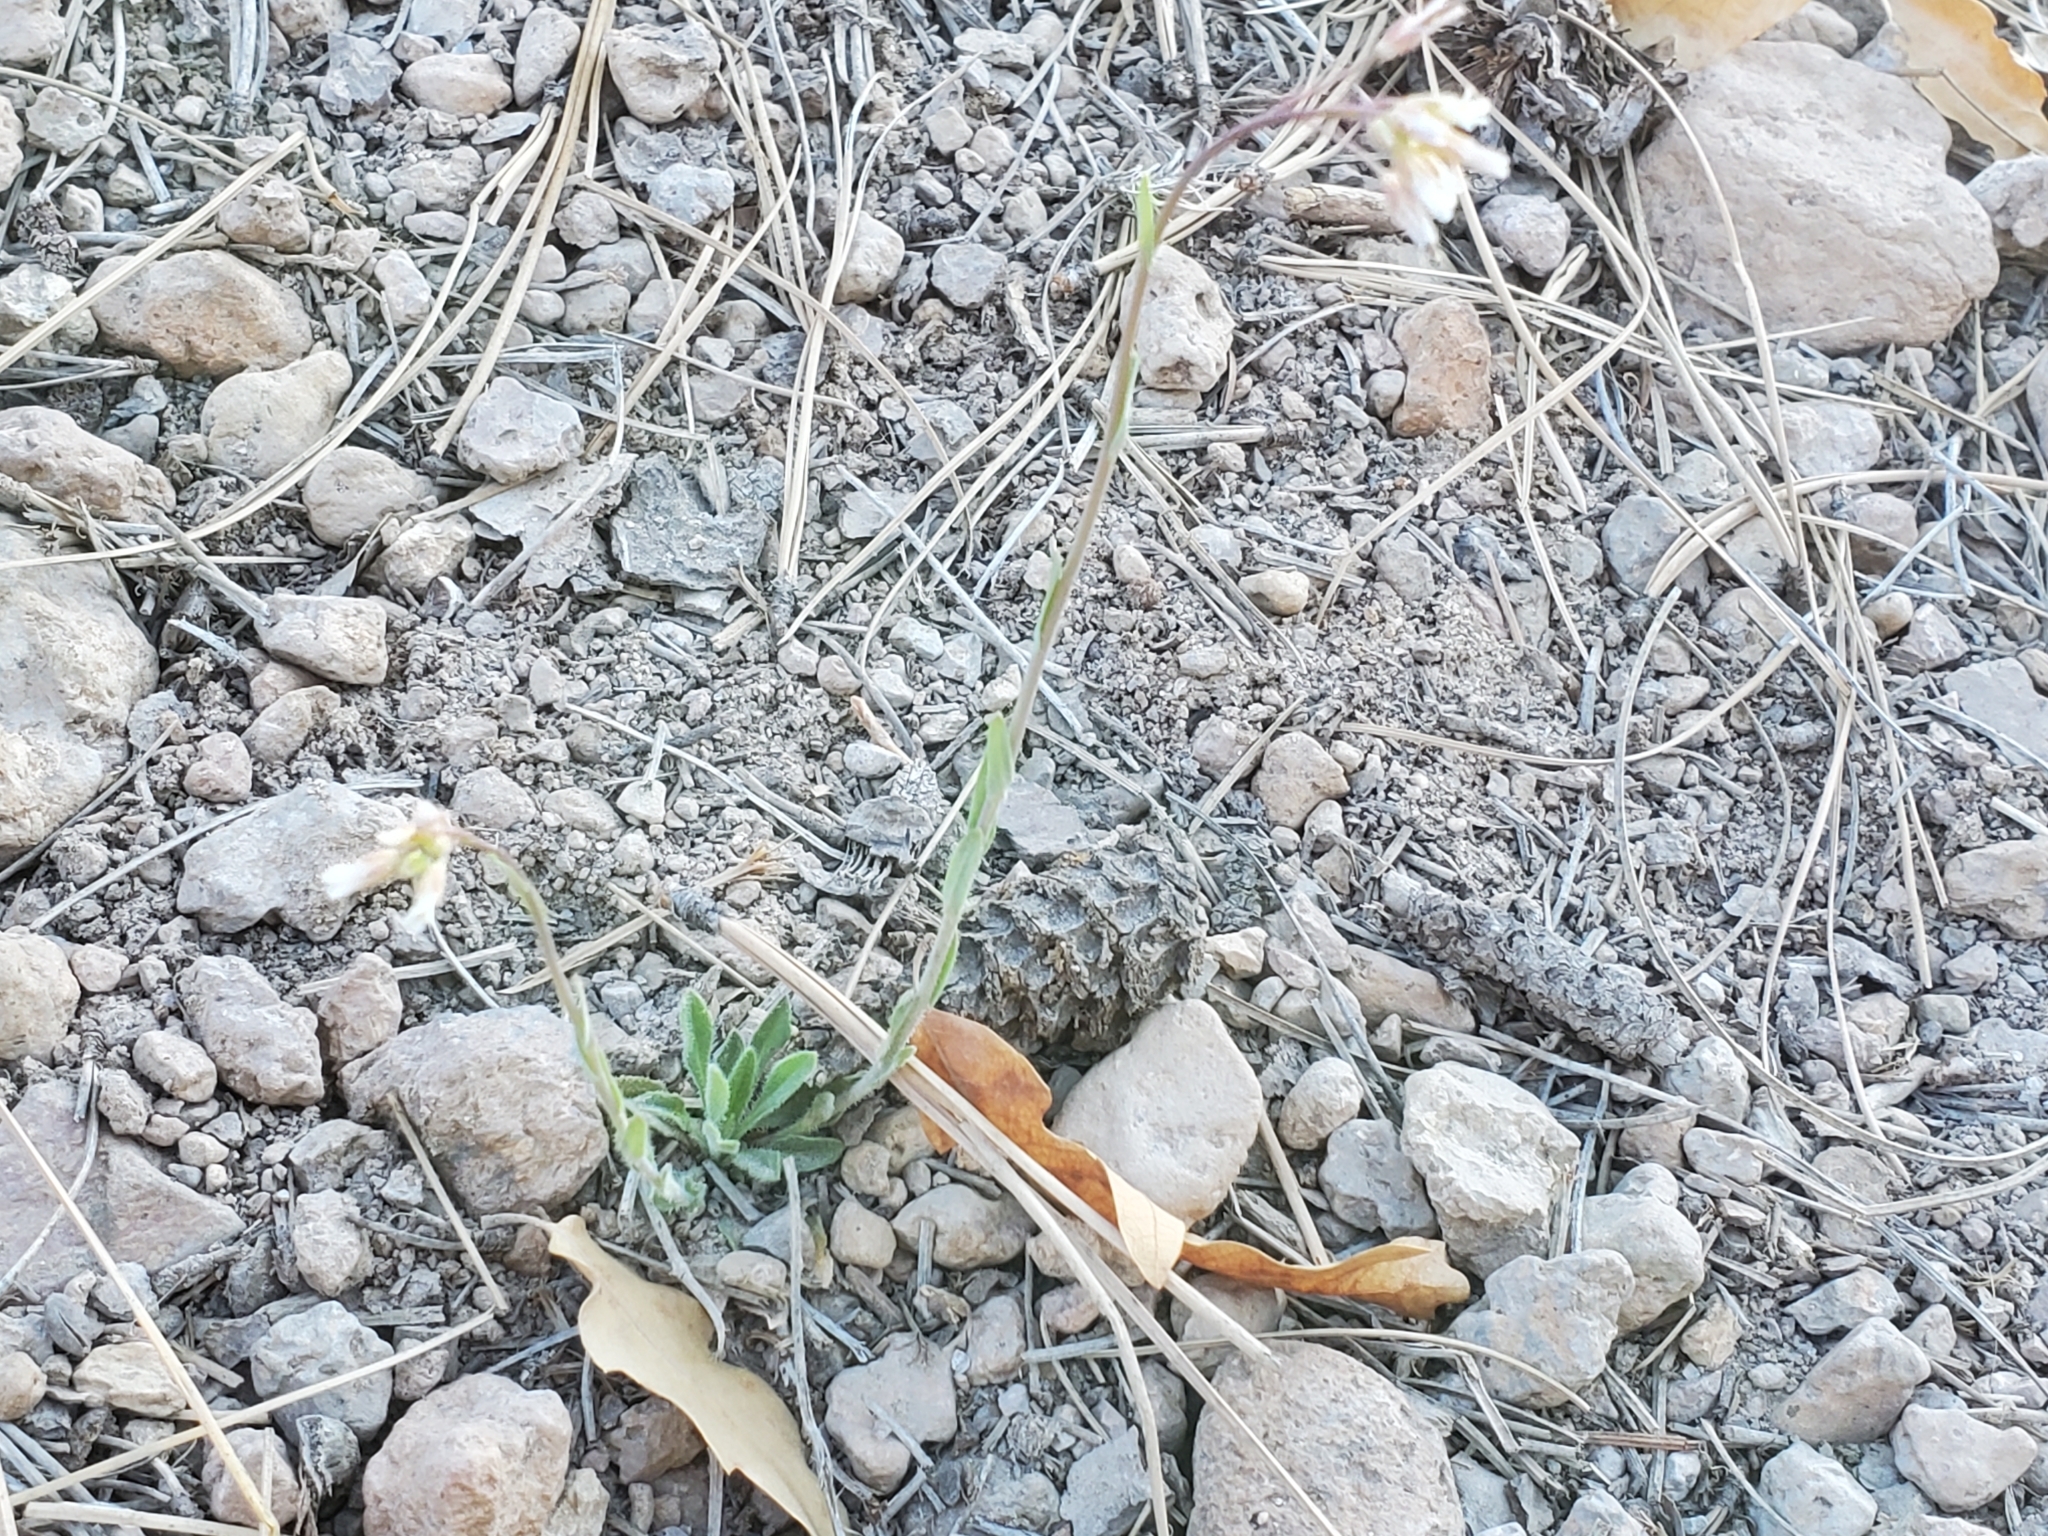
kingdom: Plantae
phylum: Tracheophyta
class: Magnoliopsida
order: Brassicales
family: Brassicaceae
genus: Boechera
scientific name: Boechera fendleri
